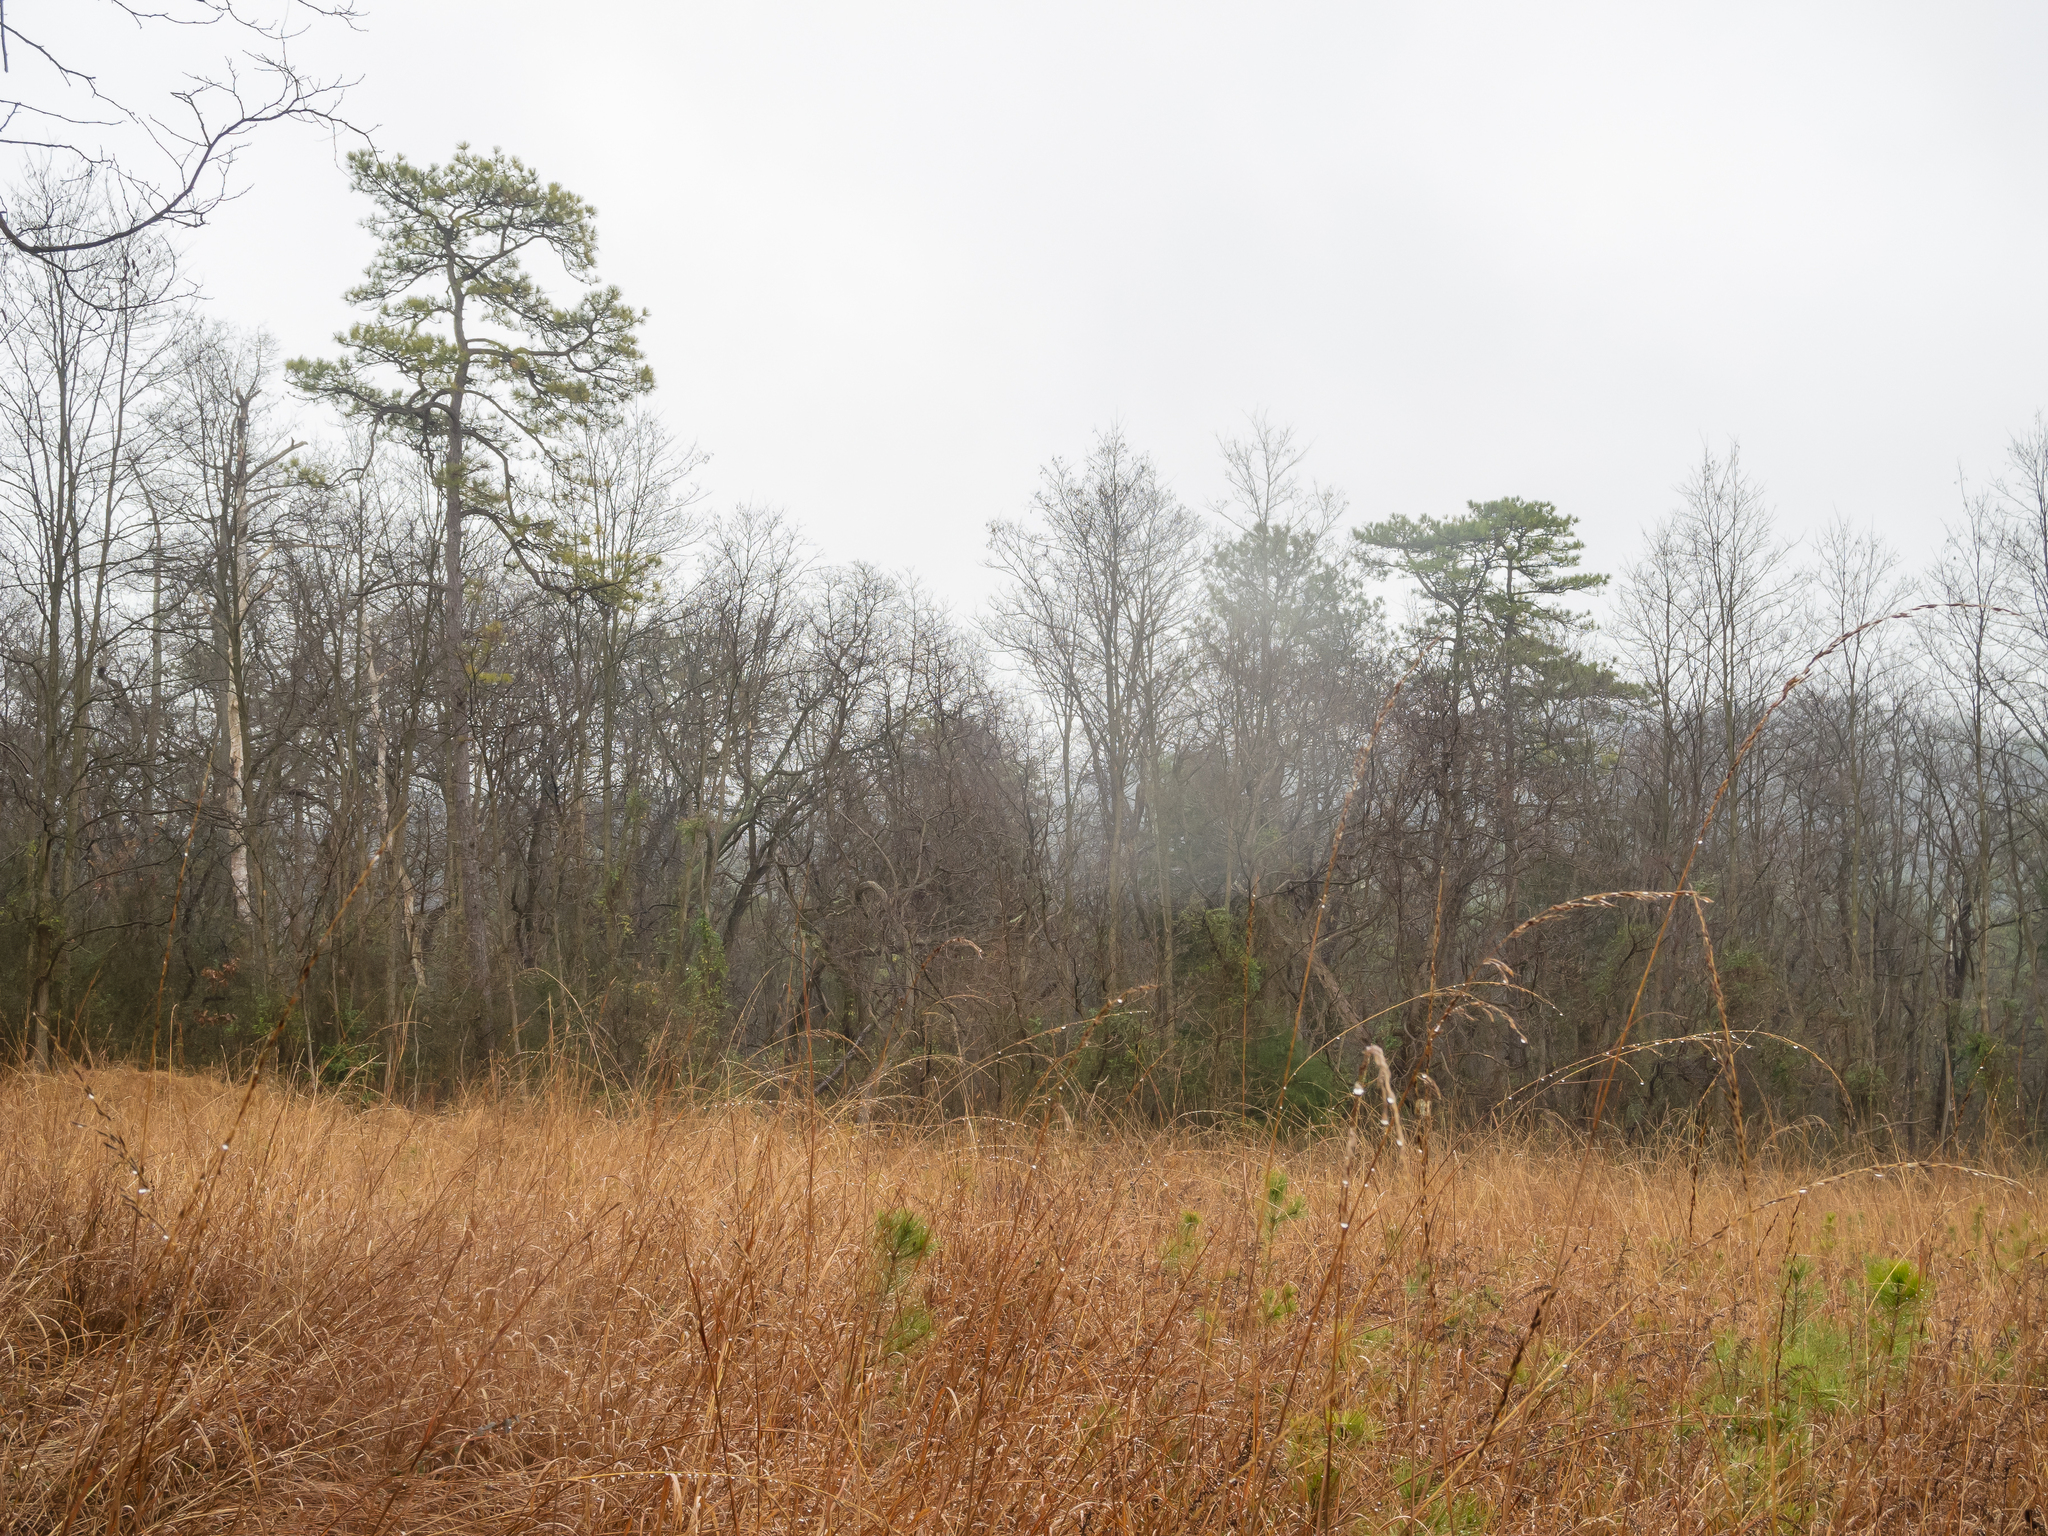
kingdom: Plantae
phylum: Tracheophyta
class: Pinopsida
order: Pinales
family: Pinaceae
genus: Pinus
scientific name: Pinus rigida
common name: Pitch pine
